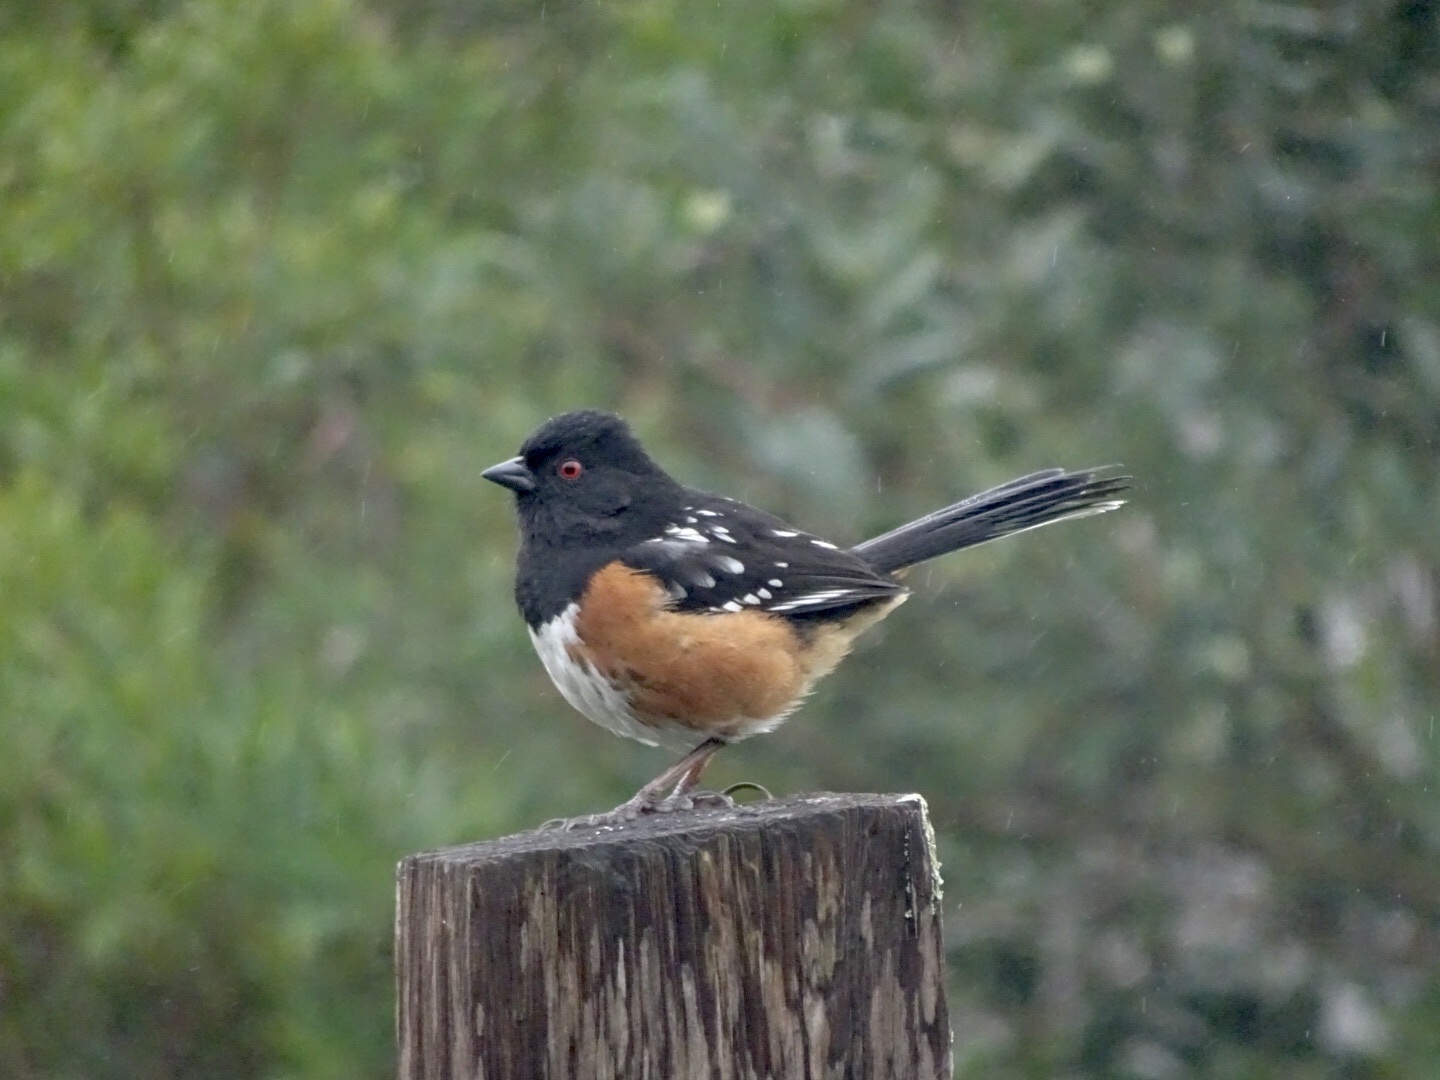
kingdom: Animalia
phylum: Chordata
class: Aves
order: Passeriformes
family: Passerellidae
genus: Pipilo
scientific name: Pipilo maculatus
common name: Spotted towhee
